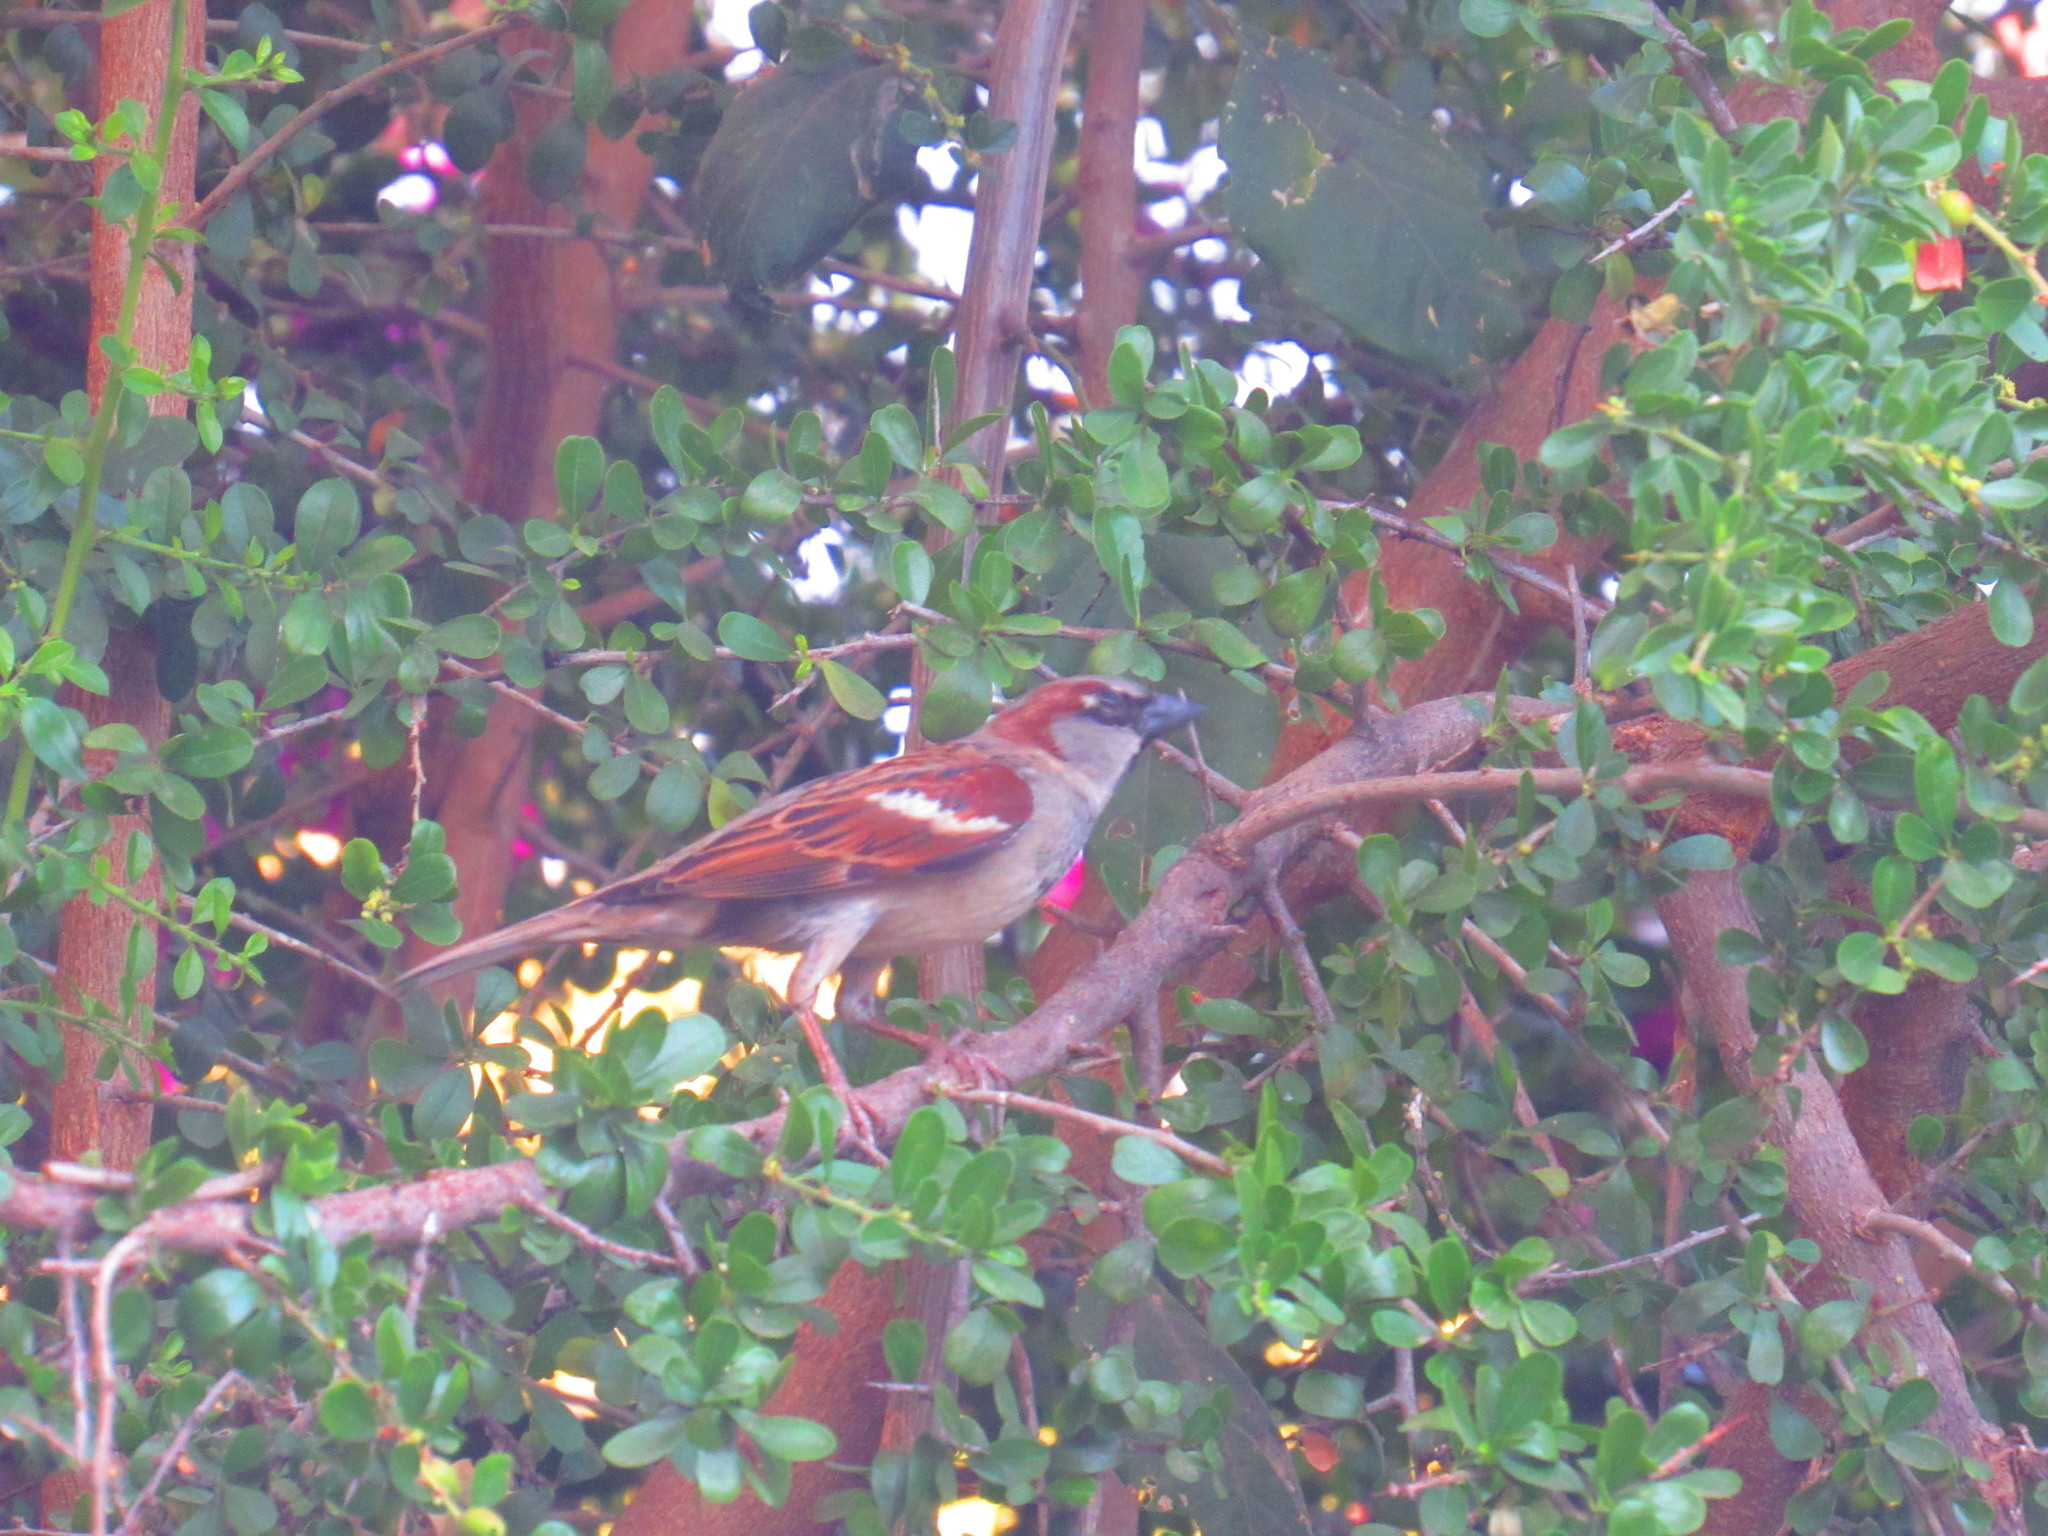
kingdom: Animalia
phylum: Chordata
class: Aves
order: Passeriformes
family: Passeridae
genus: Passer
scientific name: Passer domesticus
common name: House sparrow
